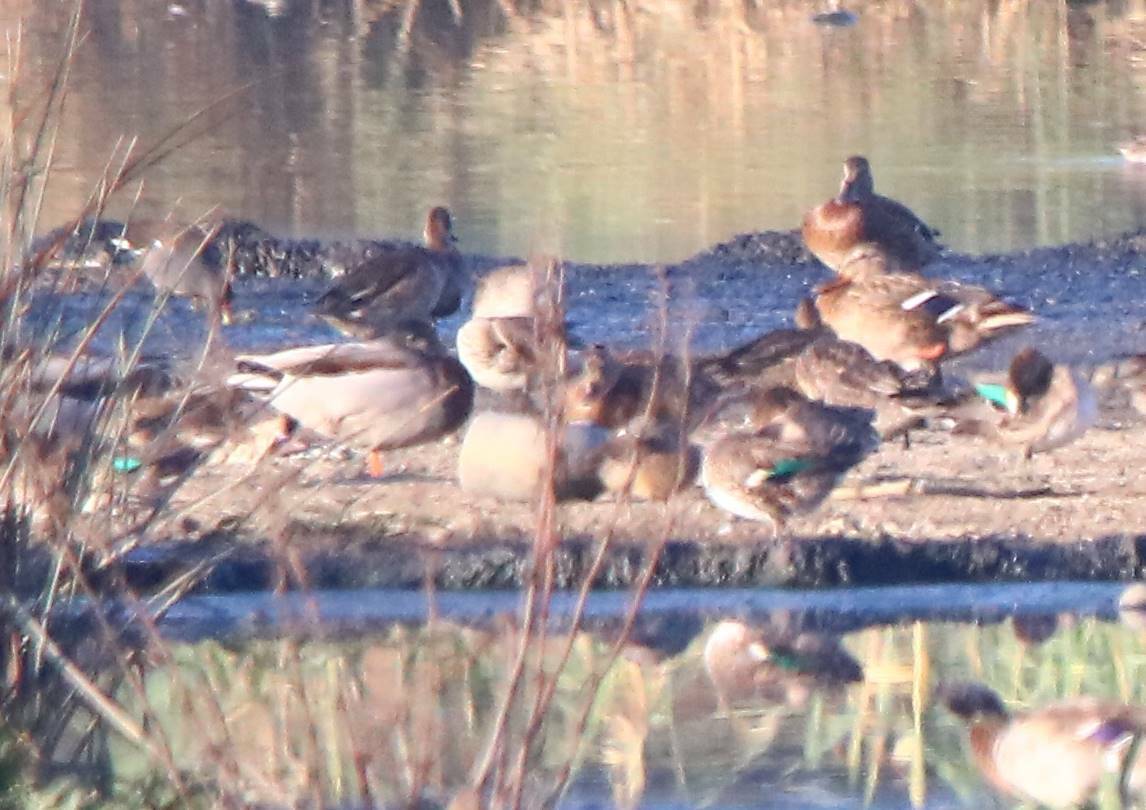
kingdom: Animalia
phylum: Chordata
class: Aves
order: Anseriformes
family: Anatidae
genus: Anas
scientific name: Anas platyrhynchos
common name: Mallard
